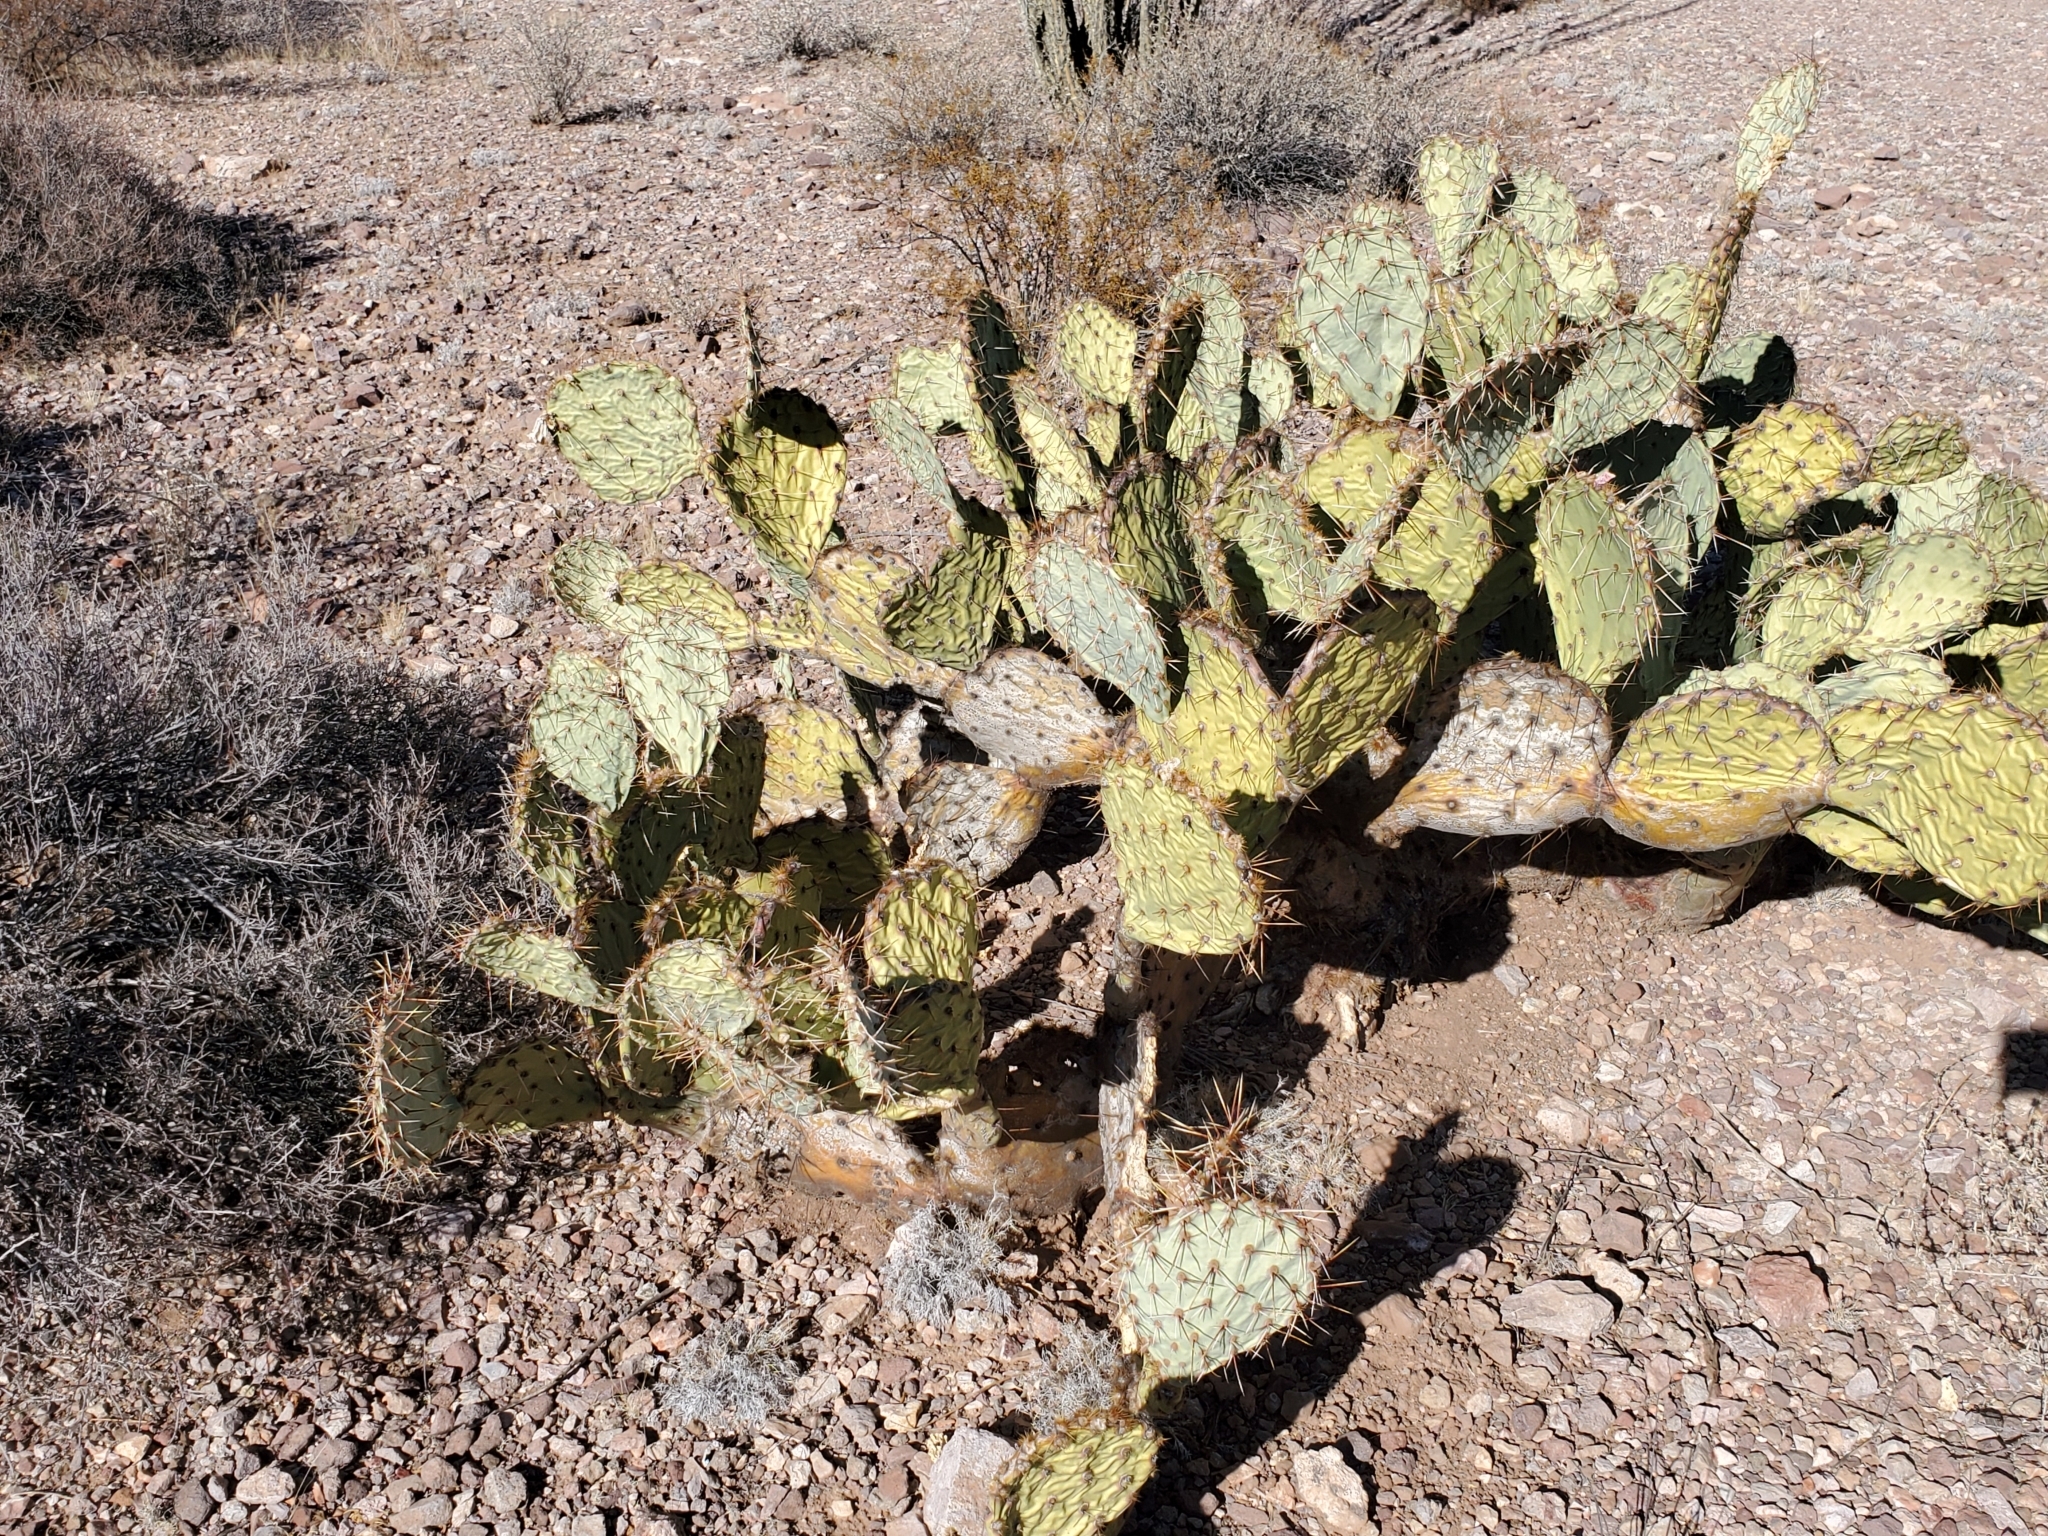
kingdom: Plantae
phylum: Tracheophyta
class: Magnoliopsida
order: Caryophyllales
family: Cactaceae
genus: Opuntia
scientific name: Opuntia
